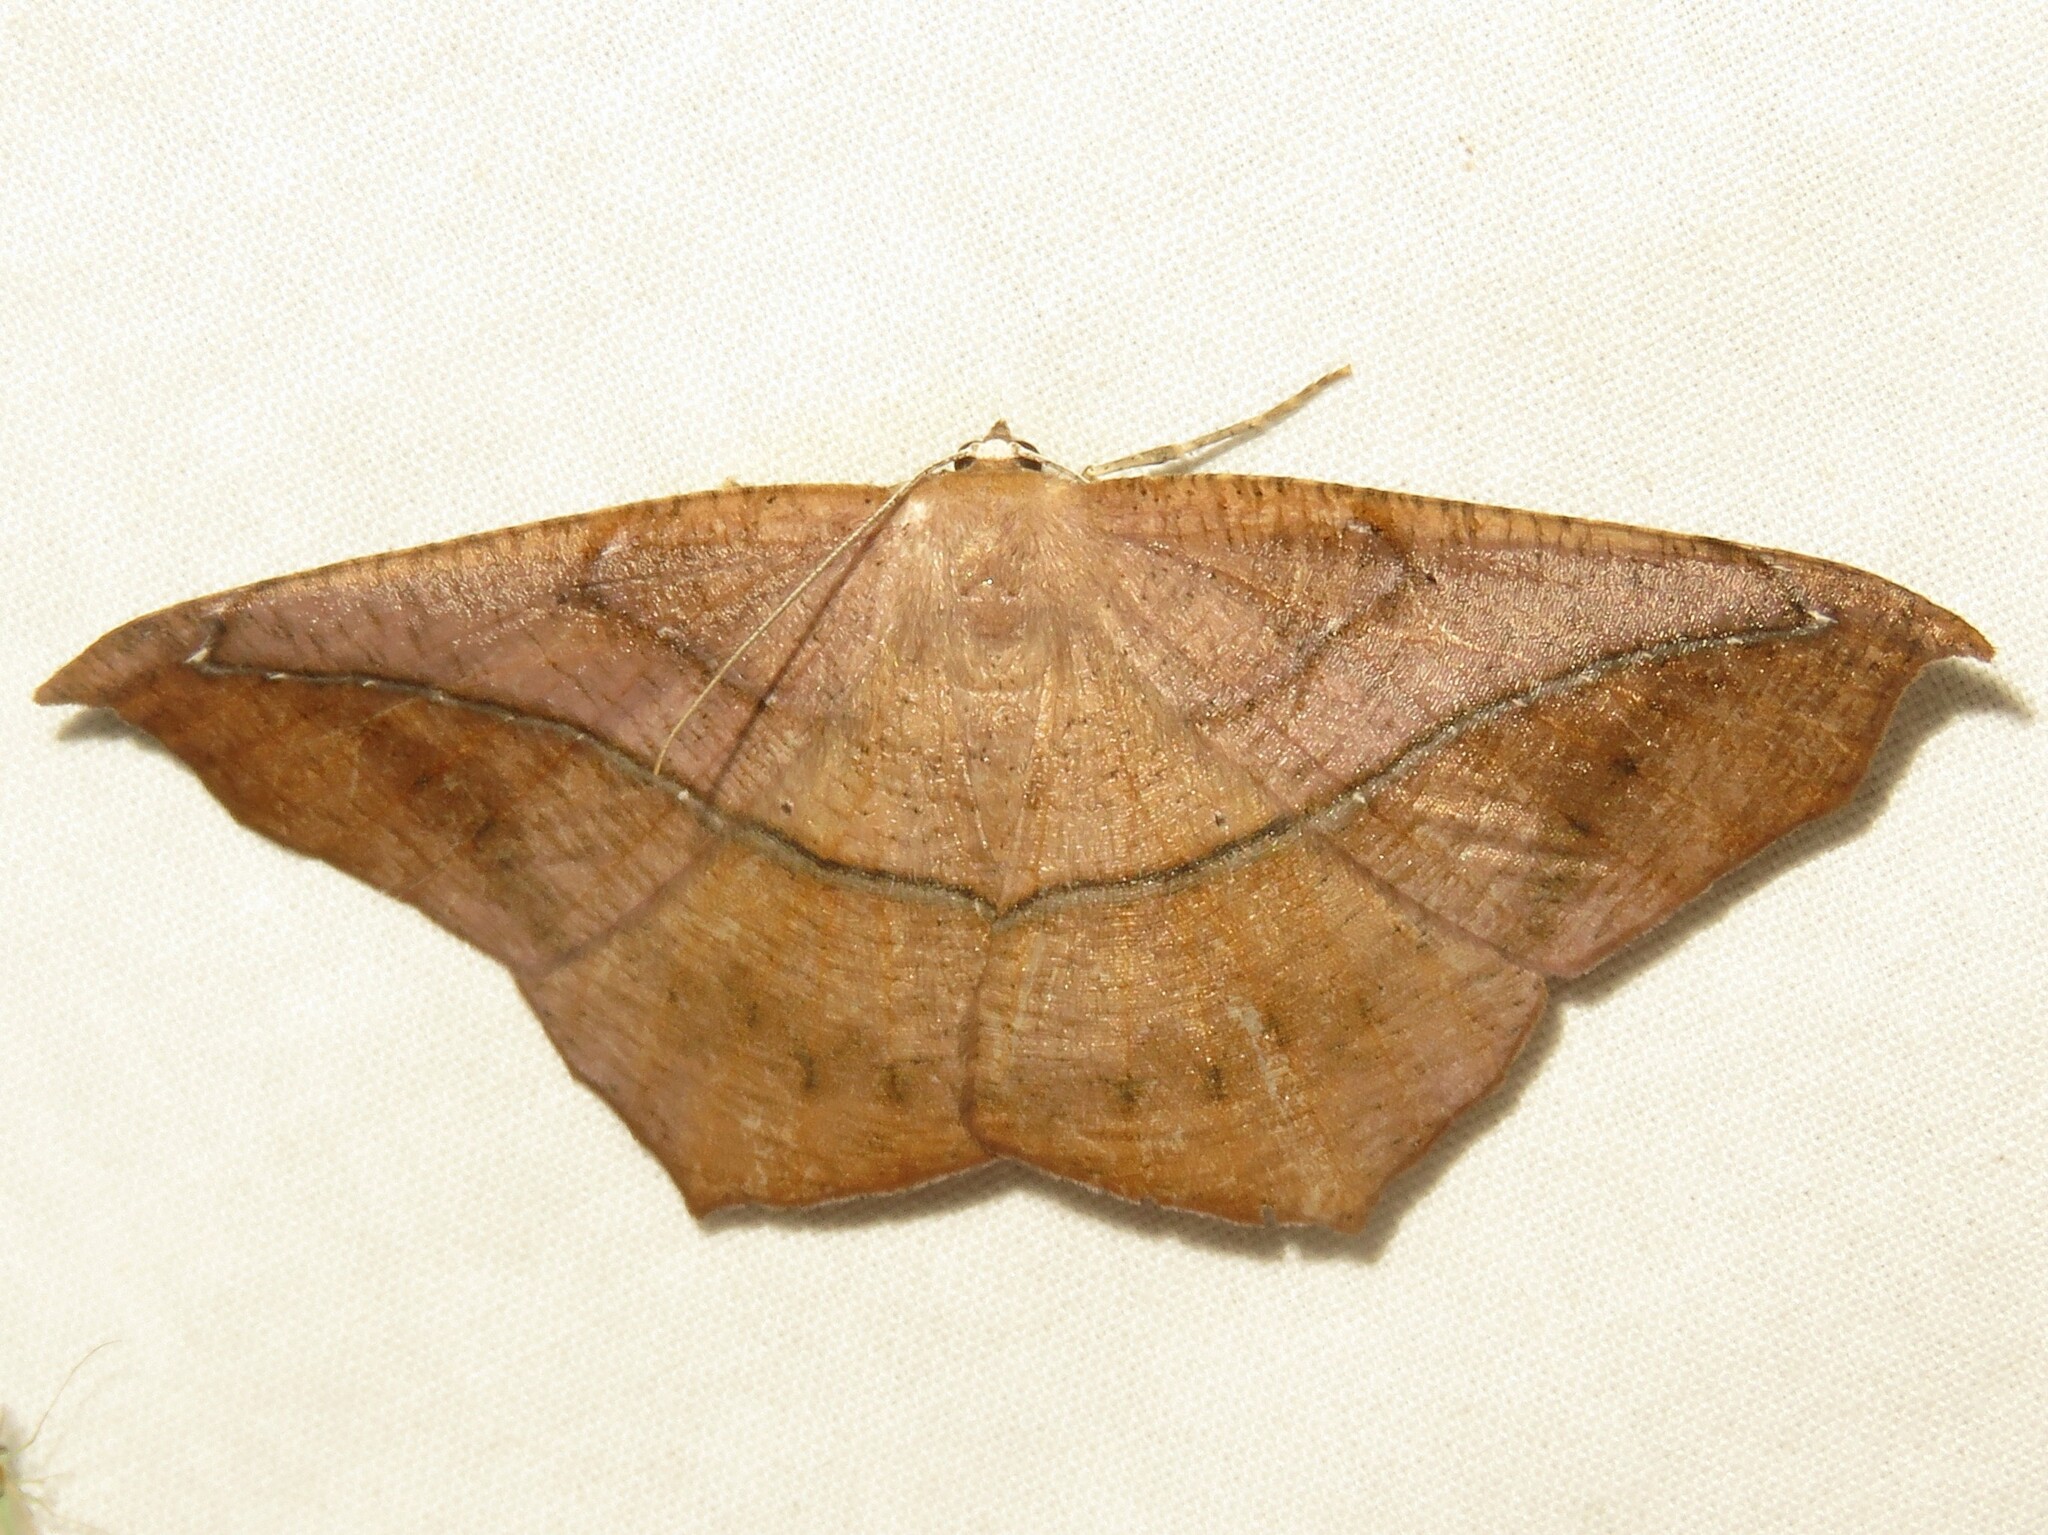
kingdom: Animalia
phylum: Arthropoda
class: Insecta
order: Lepidoptera
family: Geometridae
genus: Prochoerodes
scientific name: Prochoerodes lineola
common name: Large maple spanworm
